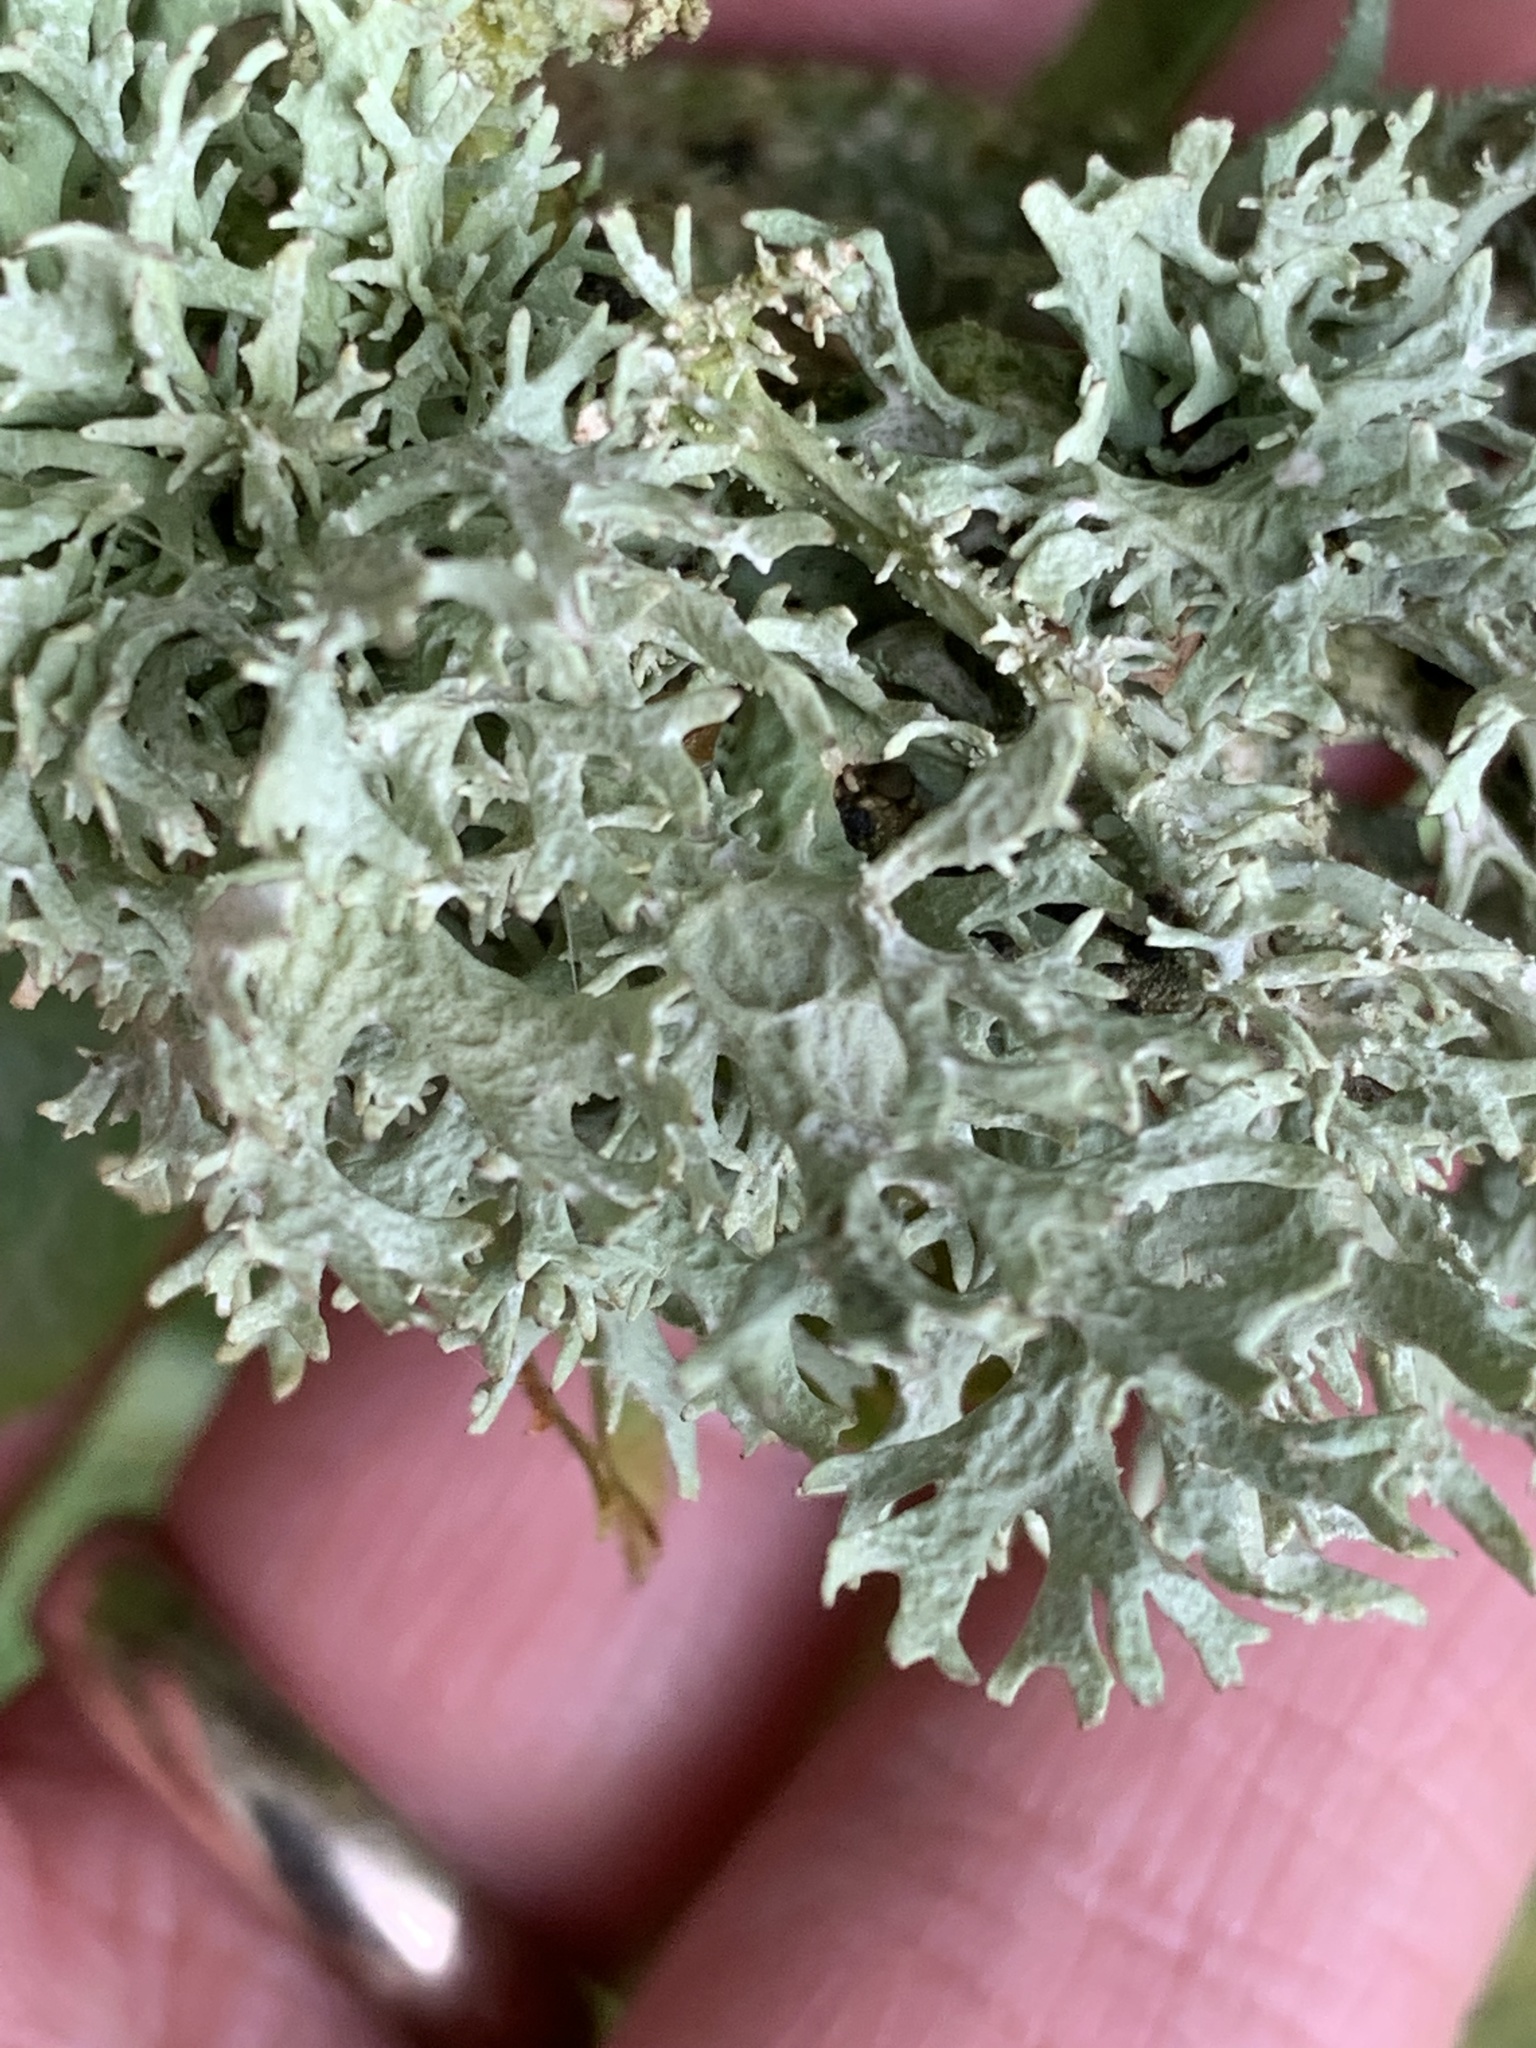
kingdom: Fungi
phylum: Ascomycota
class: Lecanoromycetes
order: Lecanorales
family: Parmeliaceae
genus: Evernia
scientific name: Evernia prunastri
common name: Oak moss
